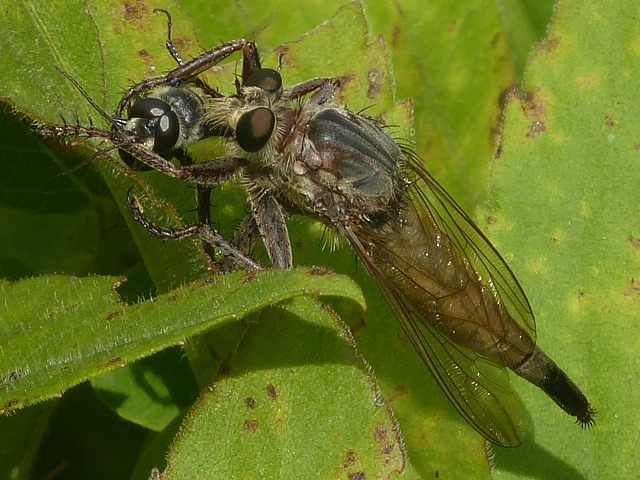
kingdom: Animalia
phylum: Arthropoda
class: Insecta
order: Diptera
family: Asilidae
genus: Proctacanthus
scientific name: Proctacanthus milbertii
